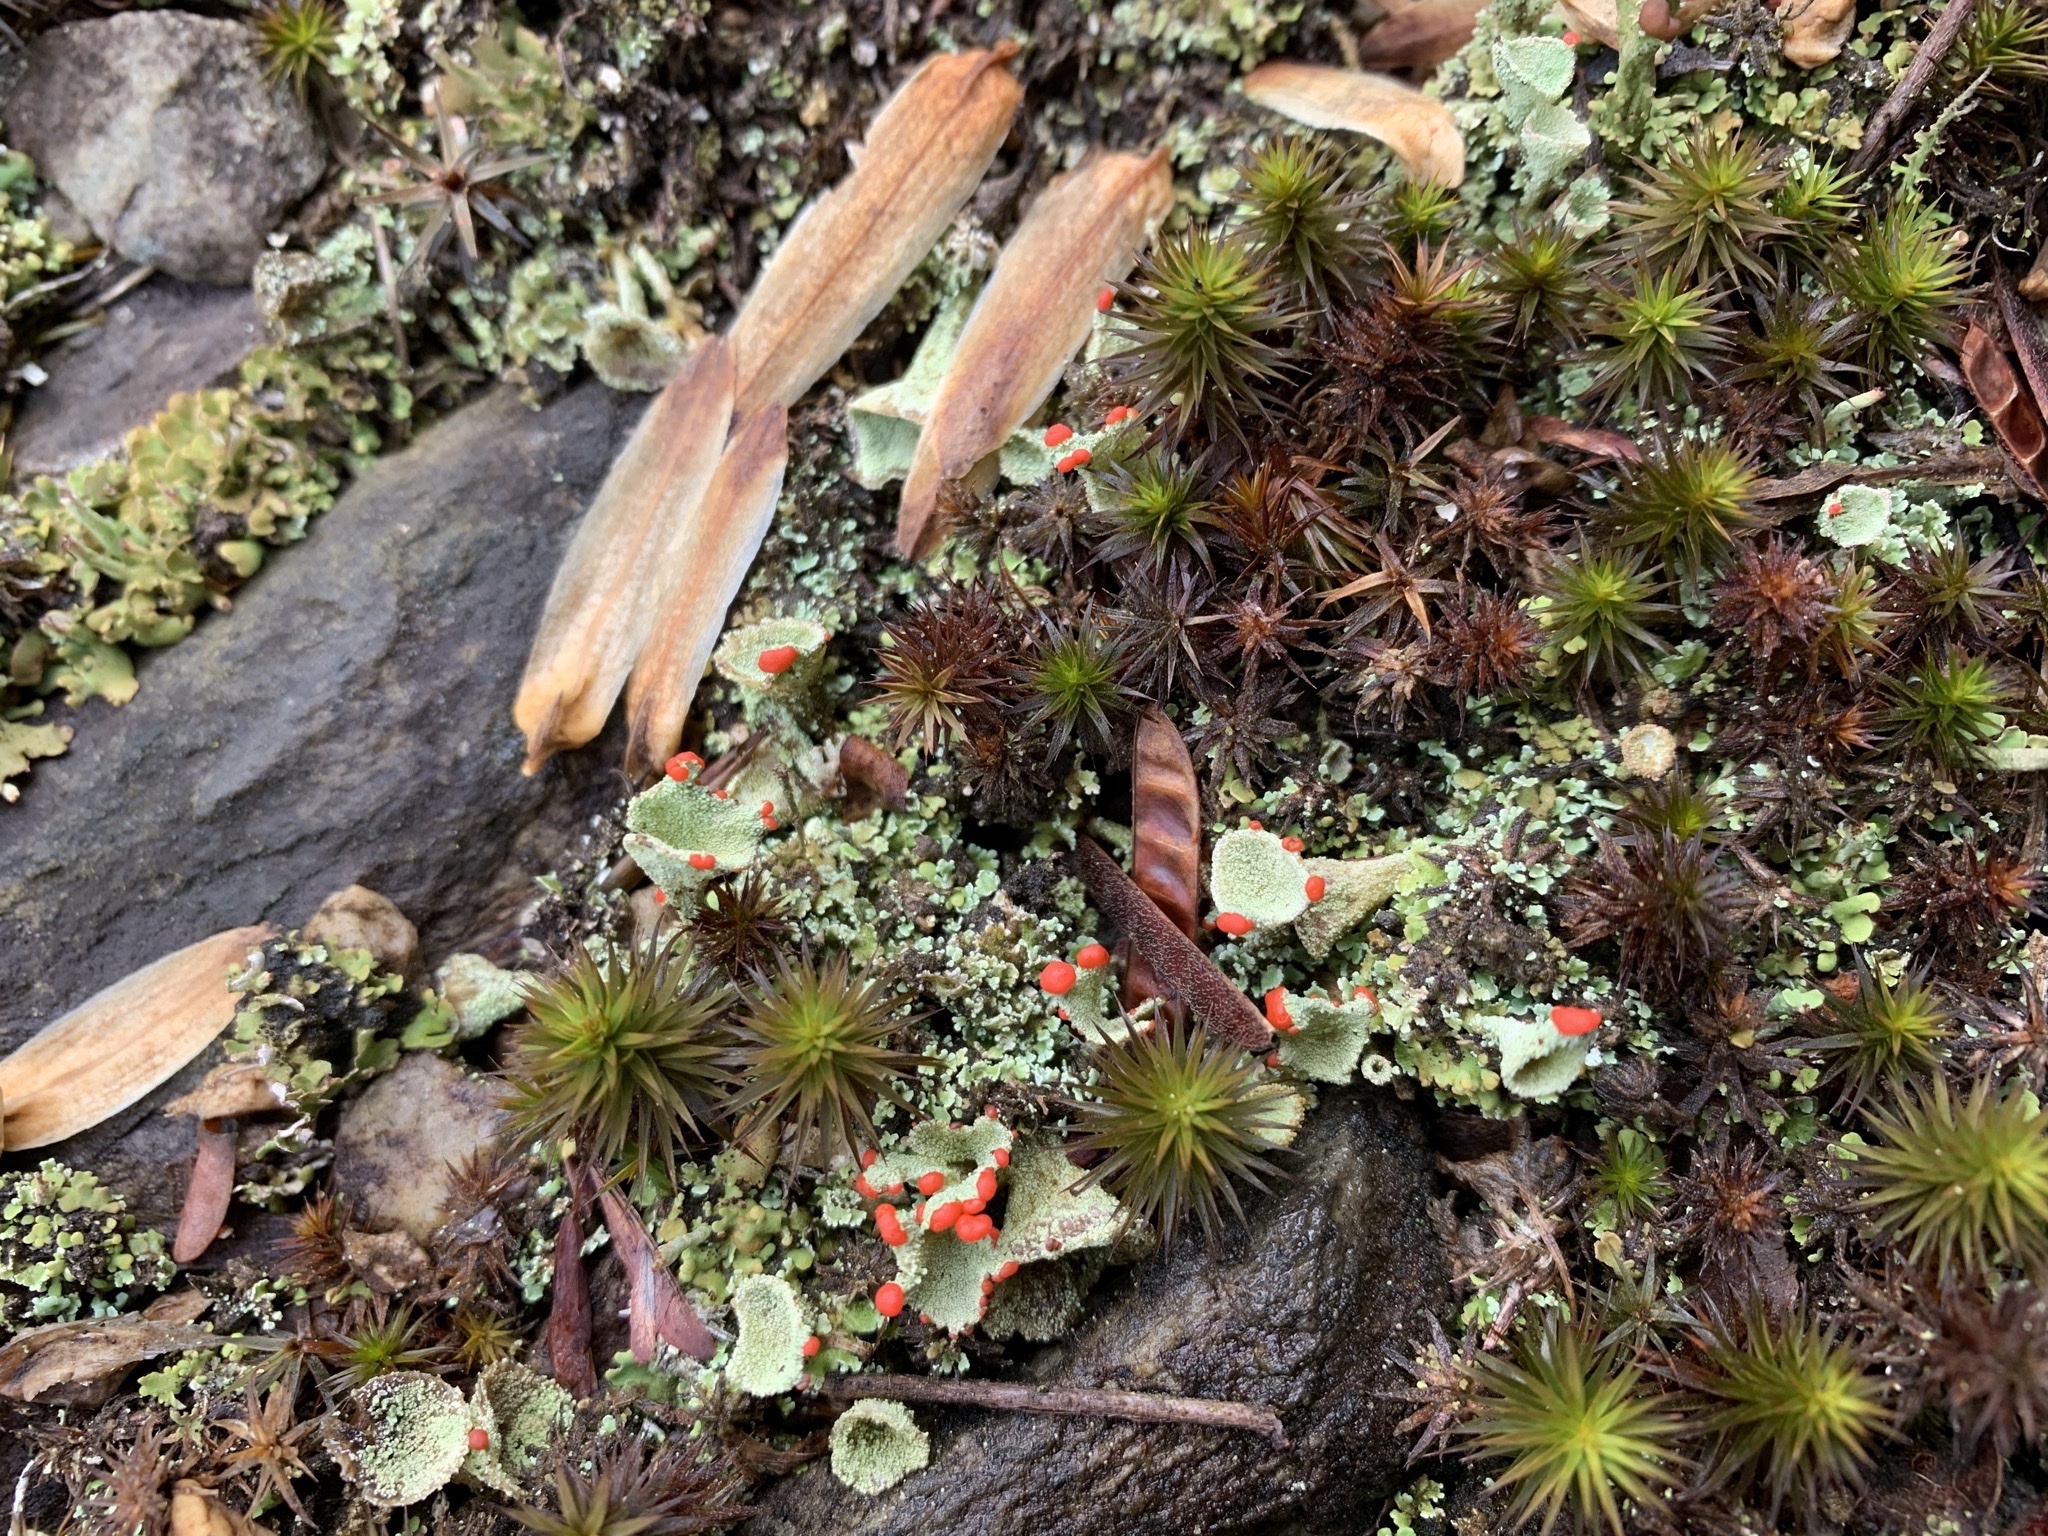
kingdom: Fungi
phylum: Ascomycota
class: Lecanoromycetes
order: Lecanorales
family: Cladoniaceae
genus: Cladonia
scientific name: Cladonia pleurota
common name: Red-fruited pixie cup
